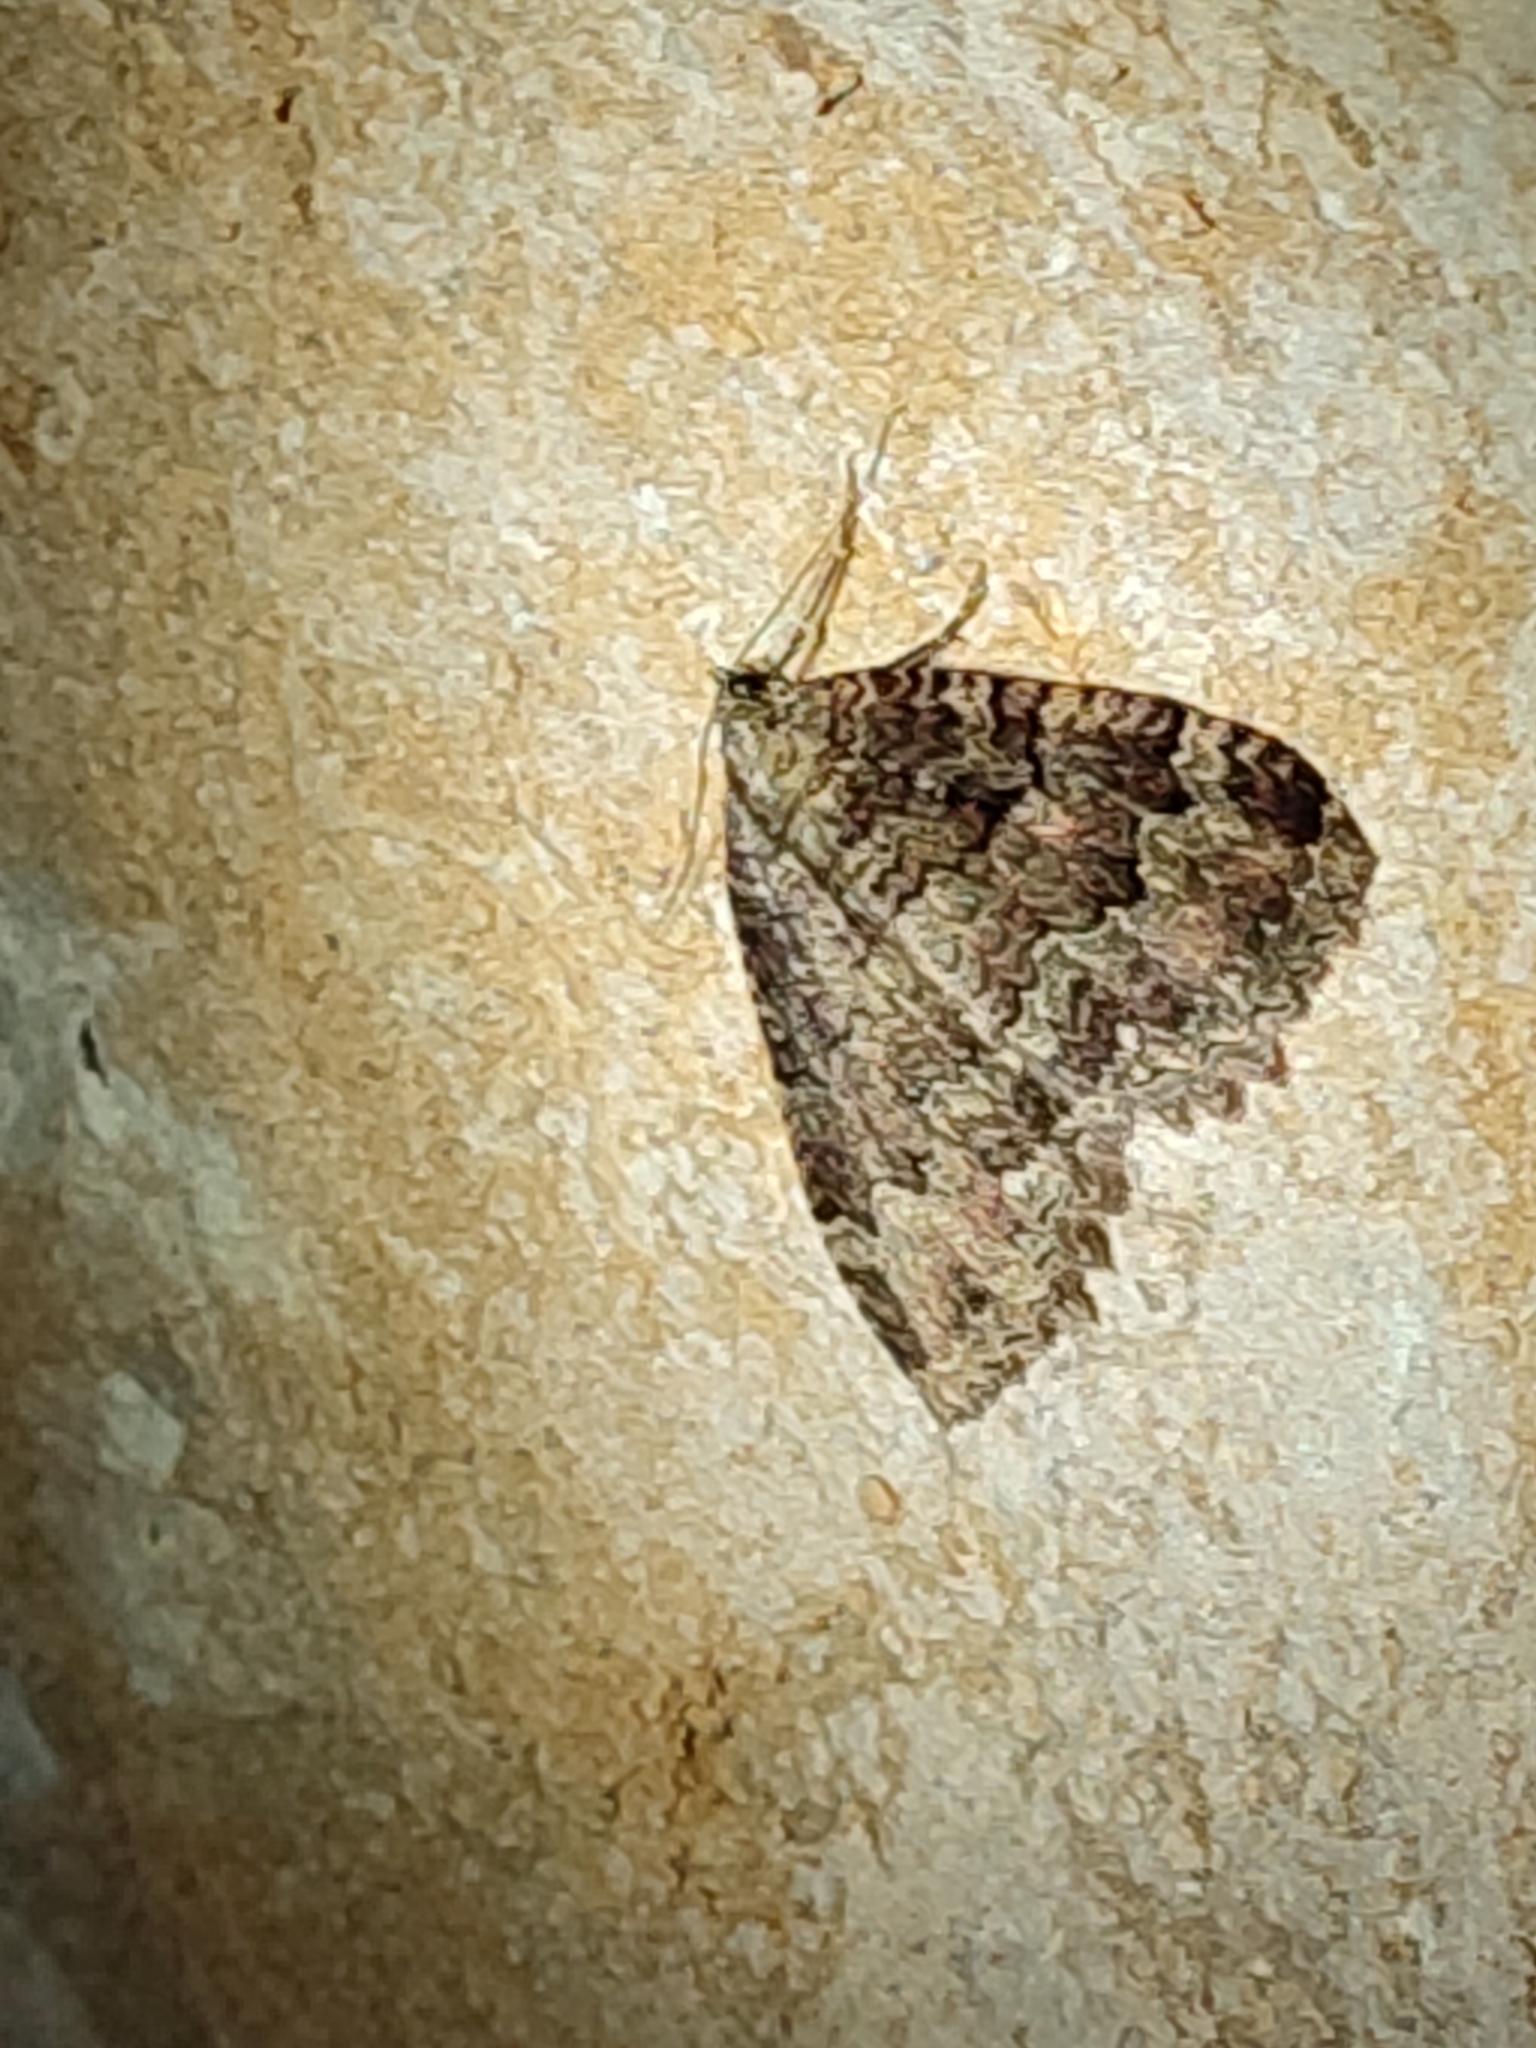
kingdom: Animalia
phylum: Arthropoda
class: Insecta
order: Lepidoptera
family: Geometridae
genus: Triphosa
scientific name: Triphosa dubitata
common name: Tissue
